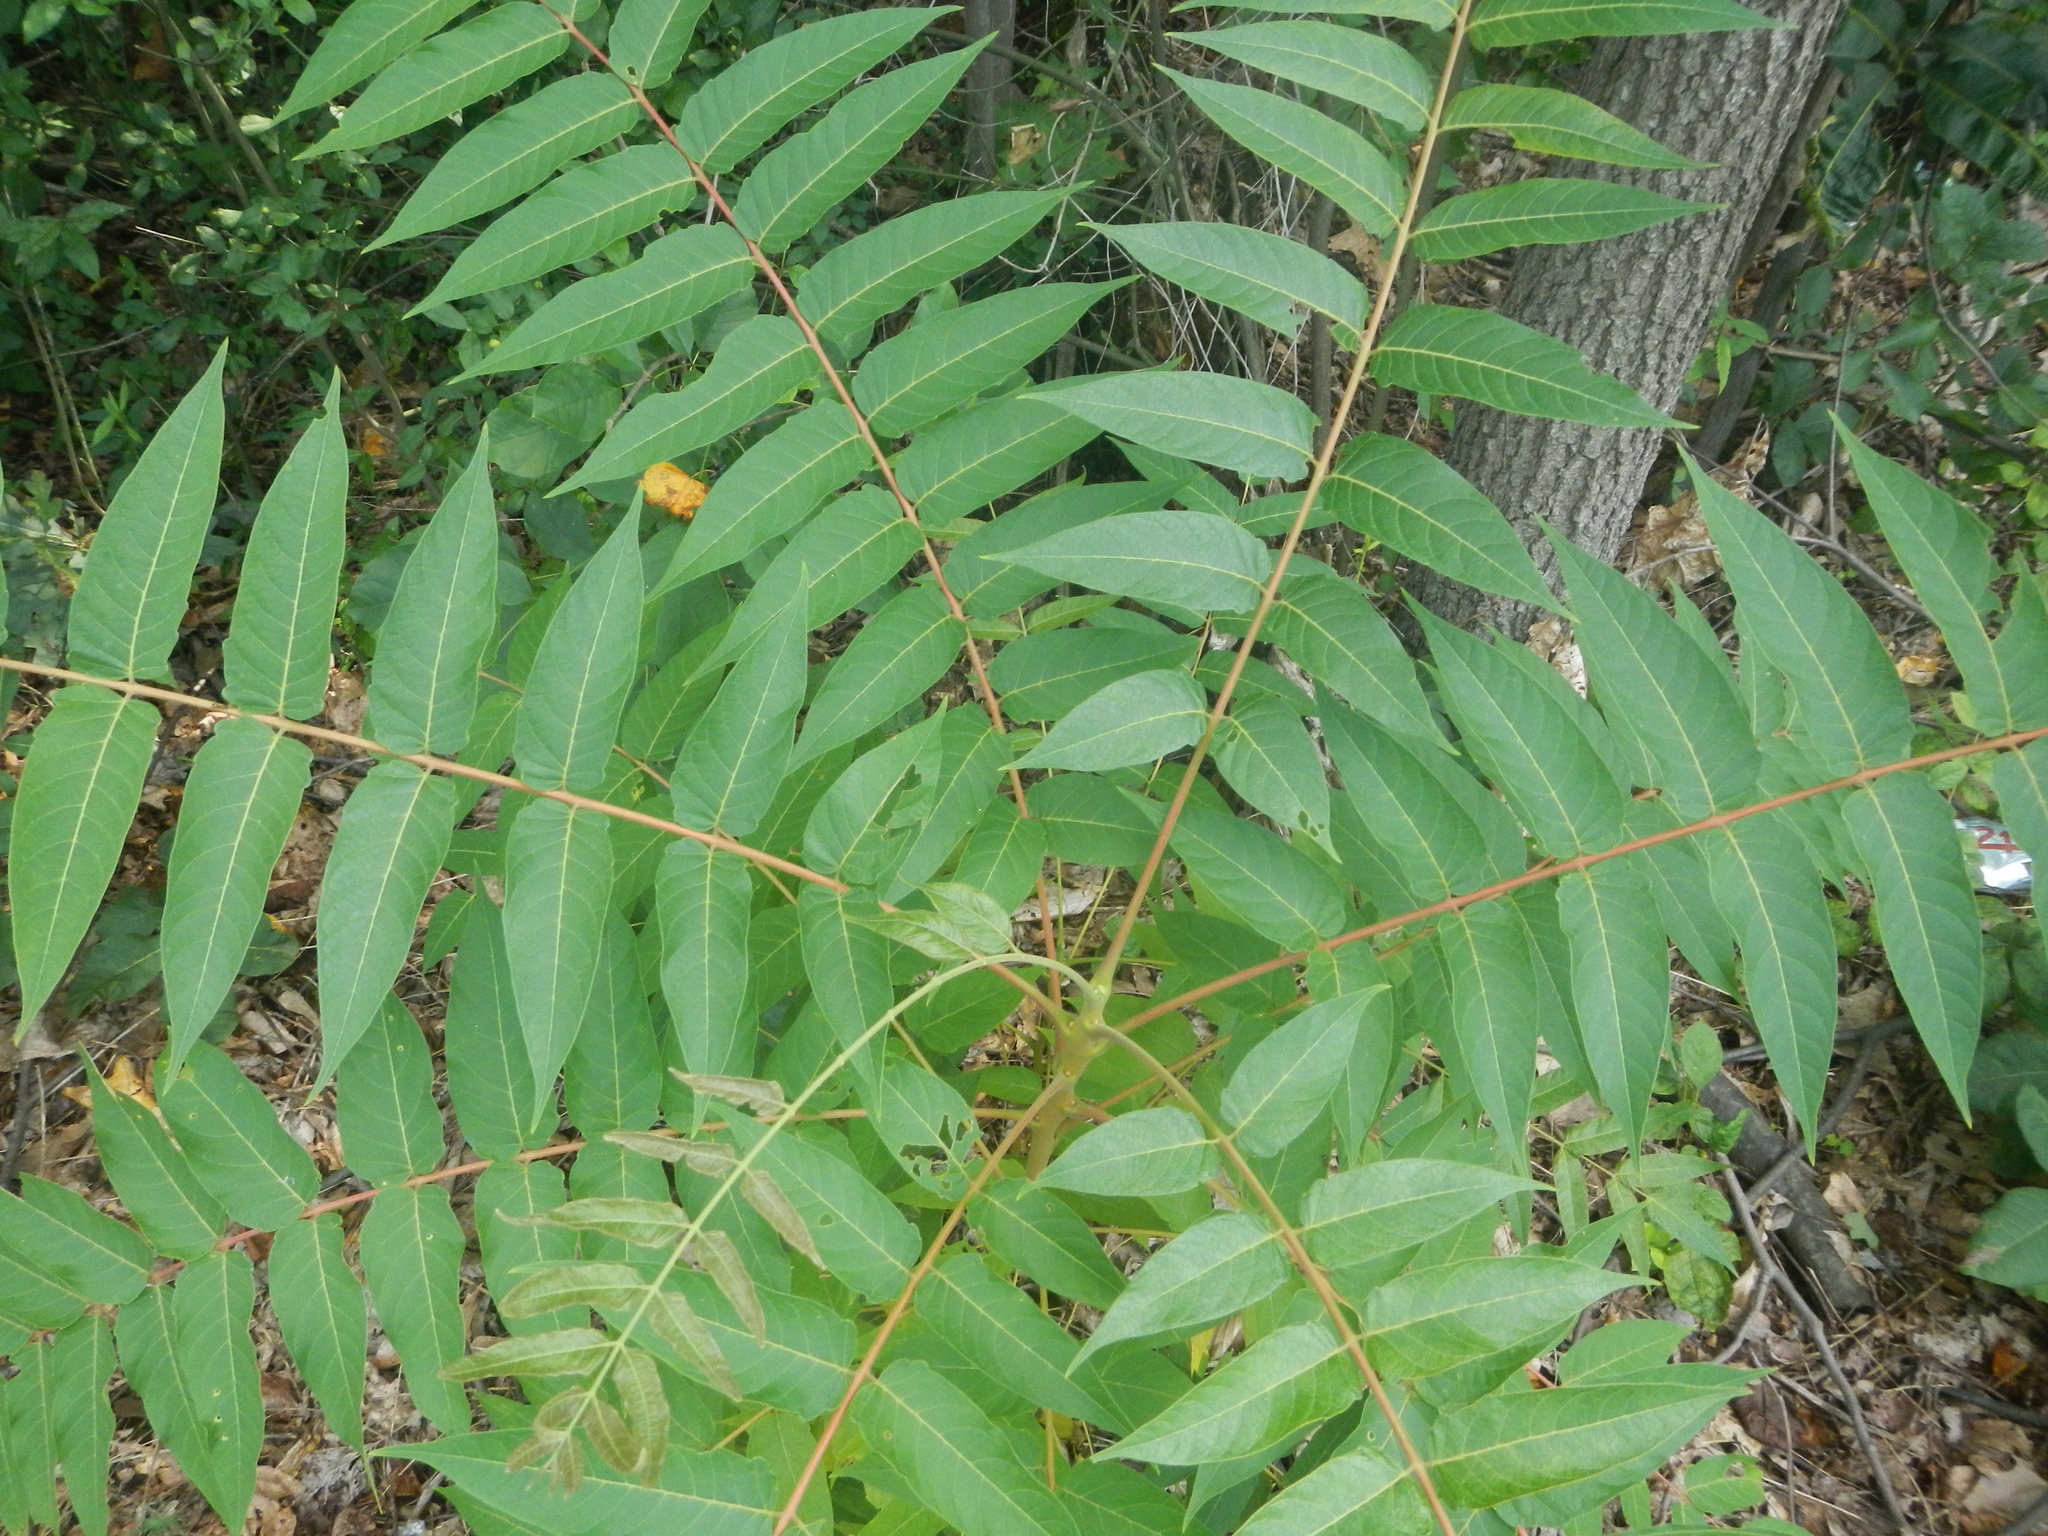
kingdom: Plantae
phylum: Tracheophyta
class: Magnoliopsida
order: Sapindales
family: Simaroubaceae
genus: Ailanthus
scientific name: Ailanthus altissima
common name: Tree-of-heaven
